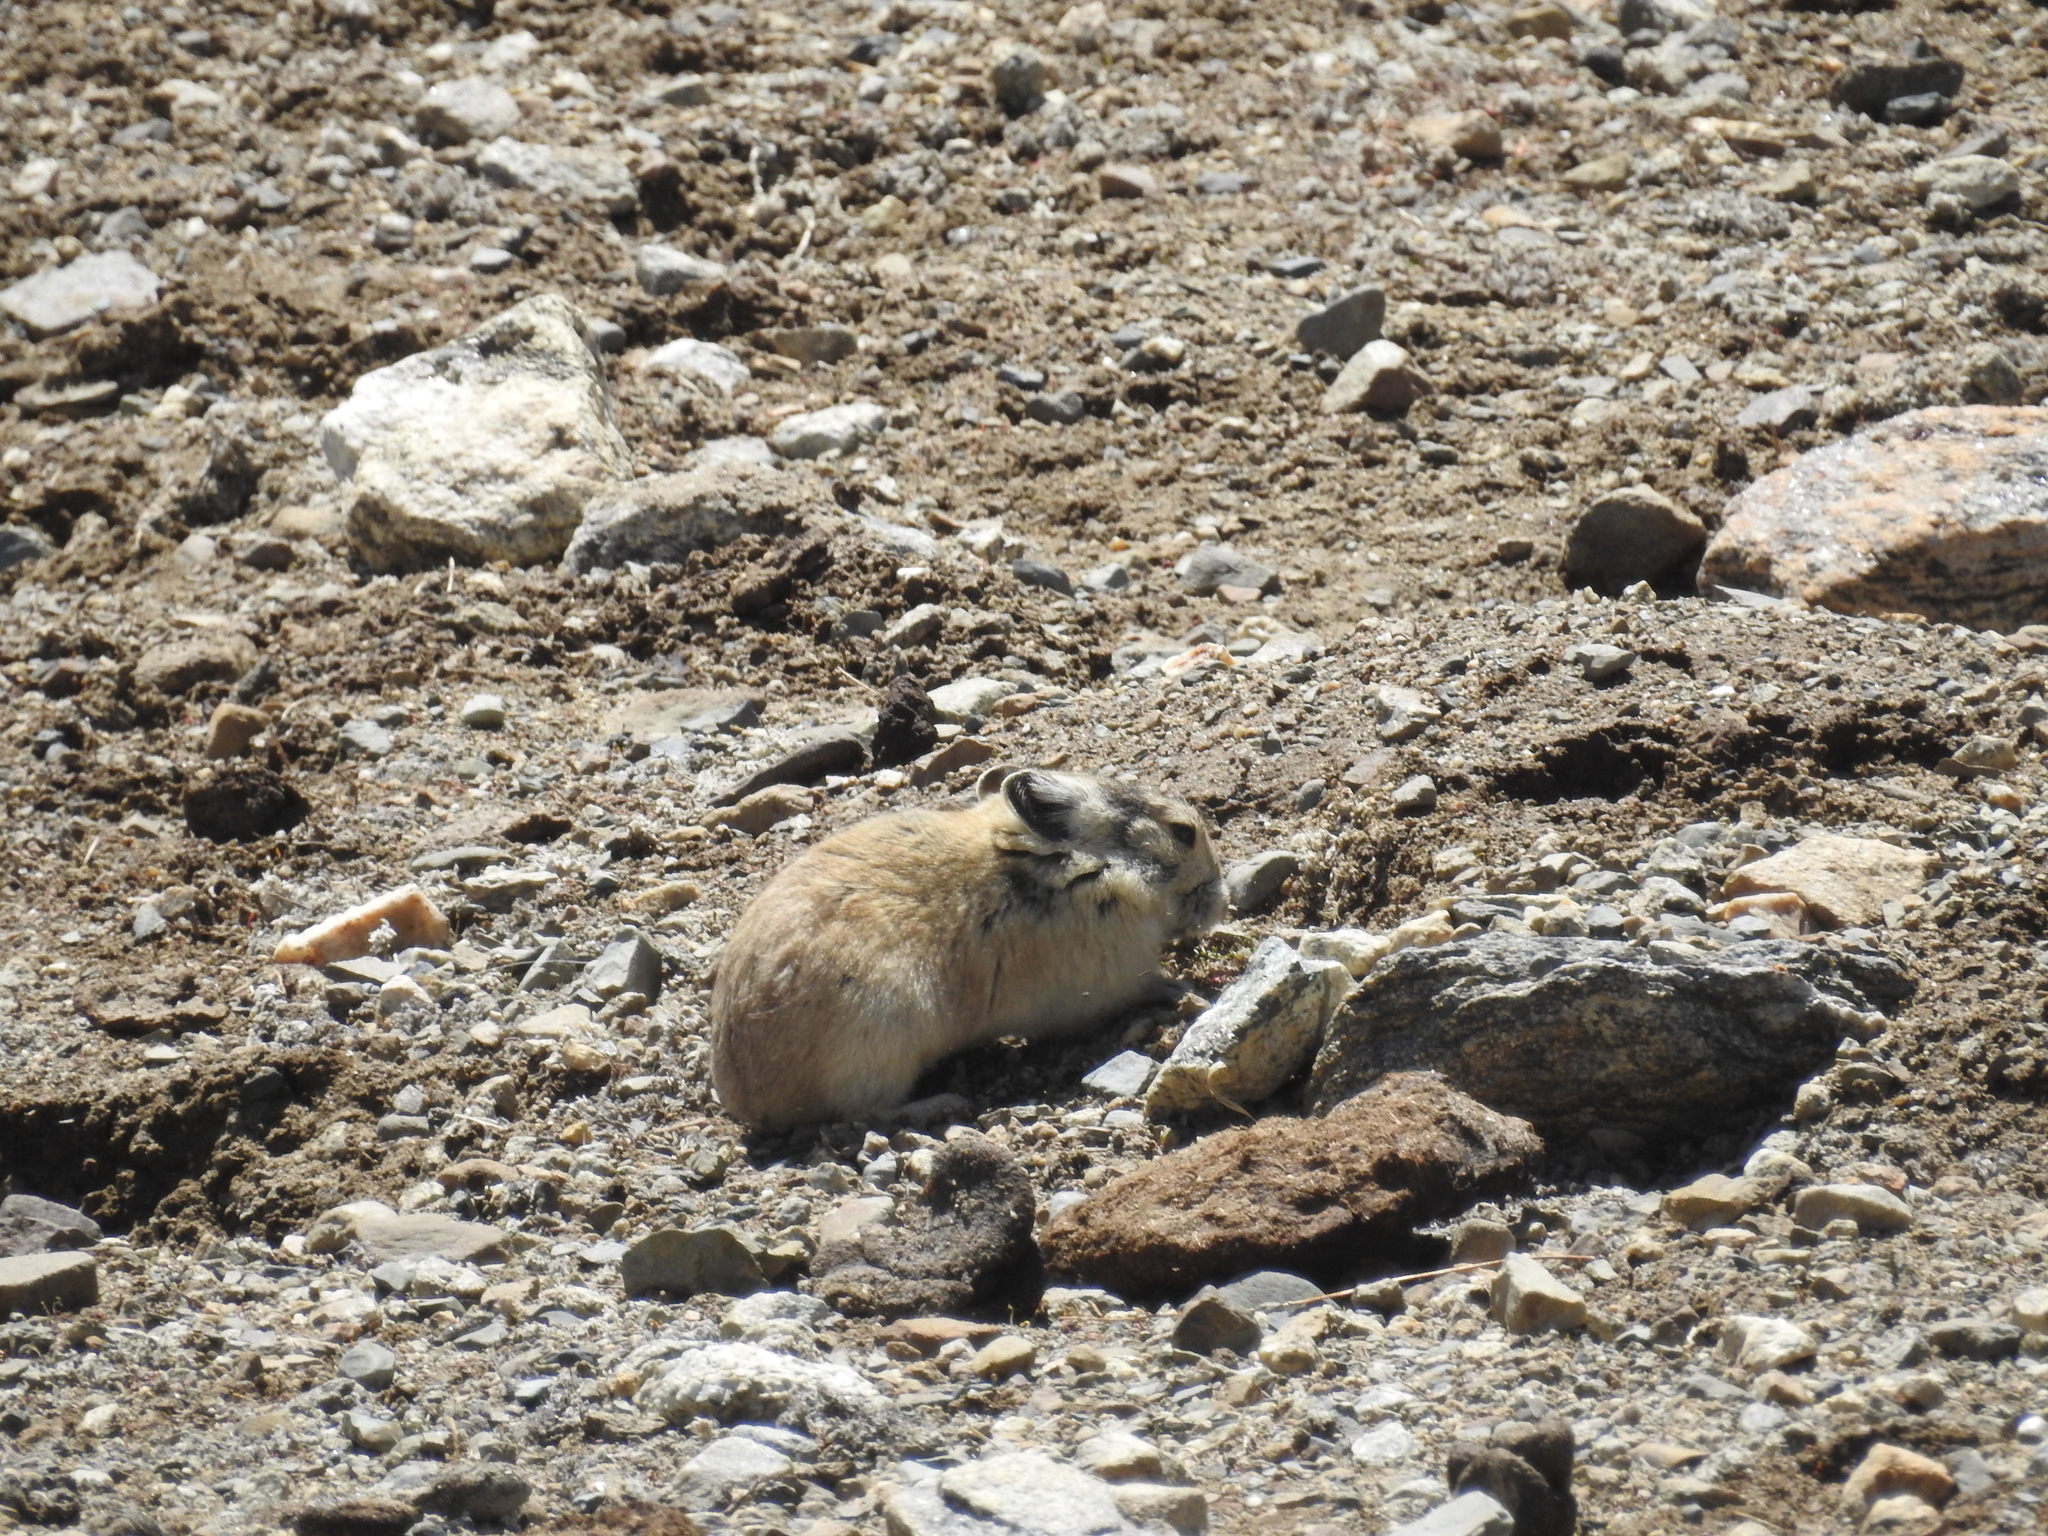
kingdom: Animalia
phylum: Chordata
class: Mammalia
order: Lagomorpha
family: Ochotonidae
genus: Ochotona
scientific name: Ochotona curzoniae
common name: Plateau pika
